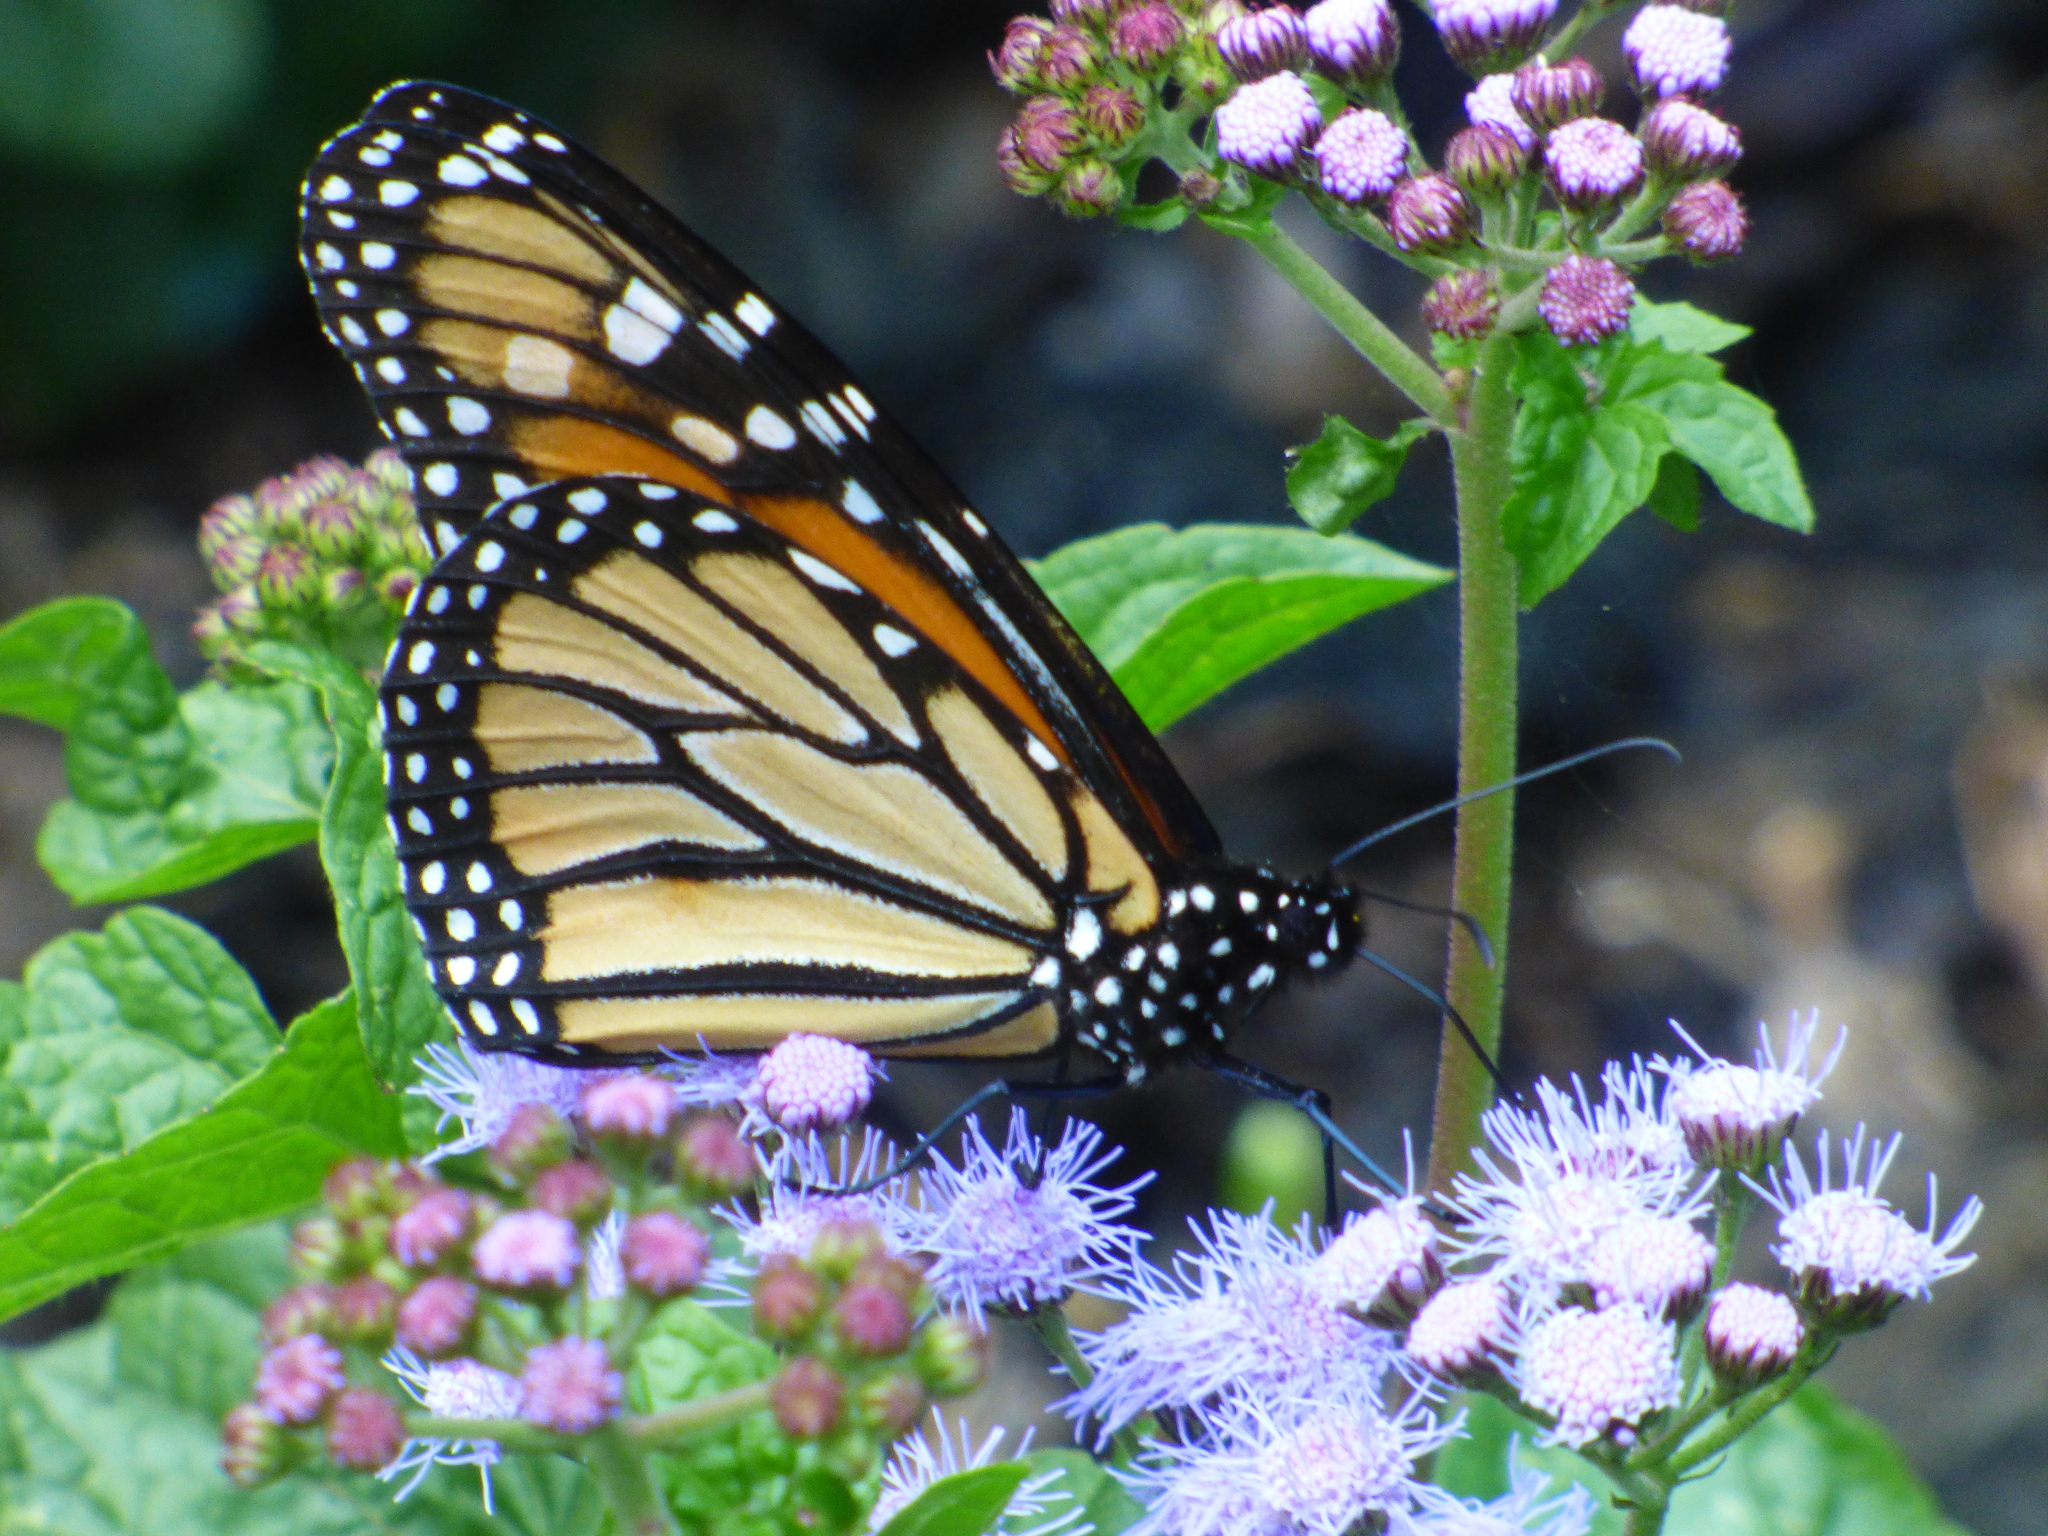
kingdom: Animalia
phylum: Arthropoda
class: Insecta
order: Lepidoptera
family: Nymphalidae
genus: Danaus
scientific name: Danaus plexippus
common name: Monarch
